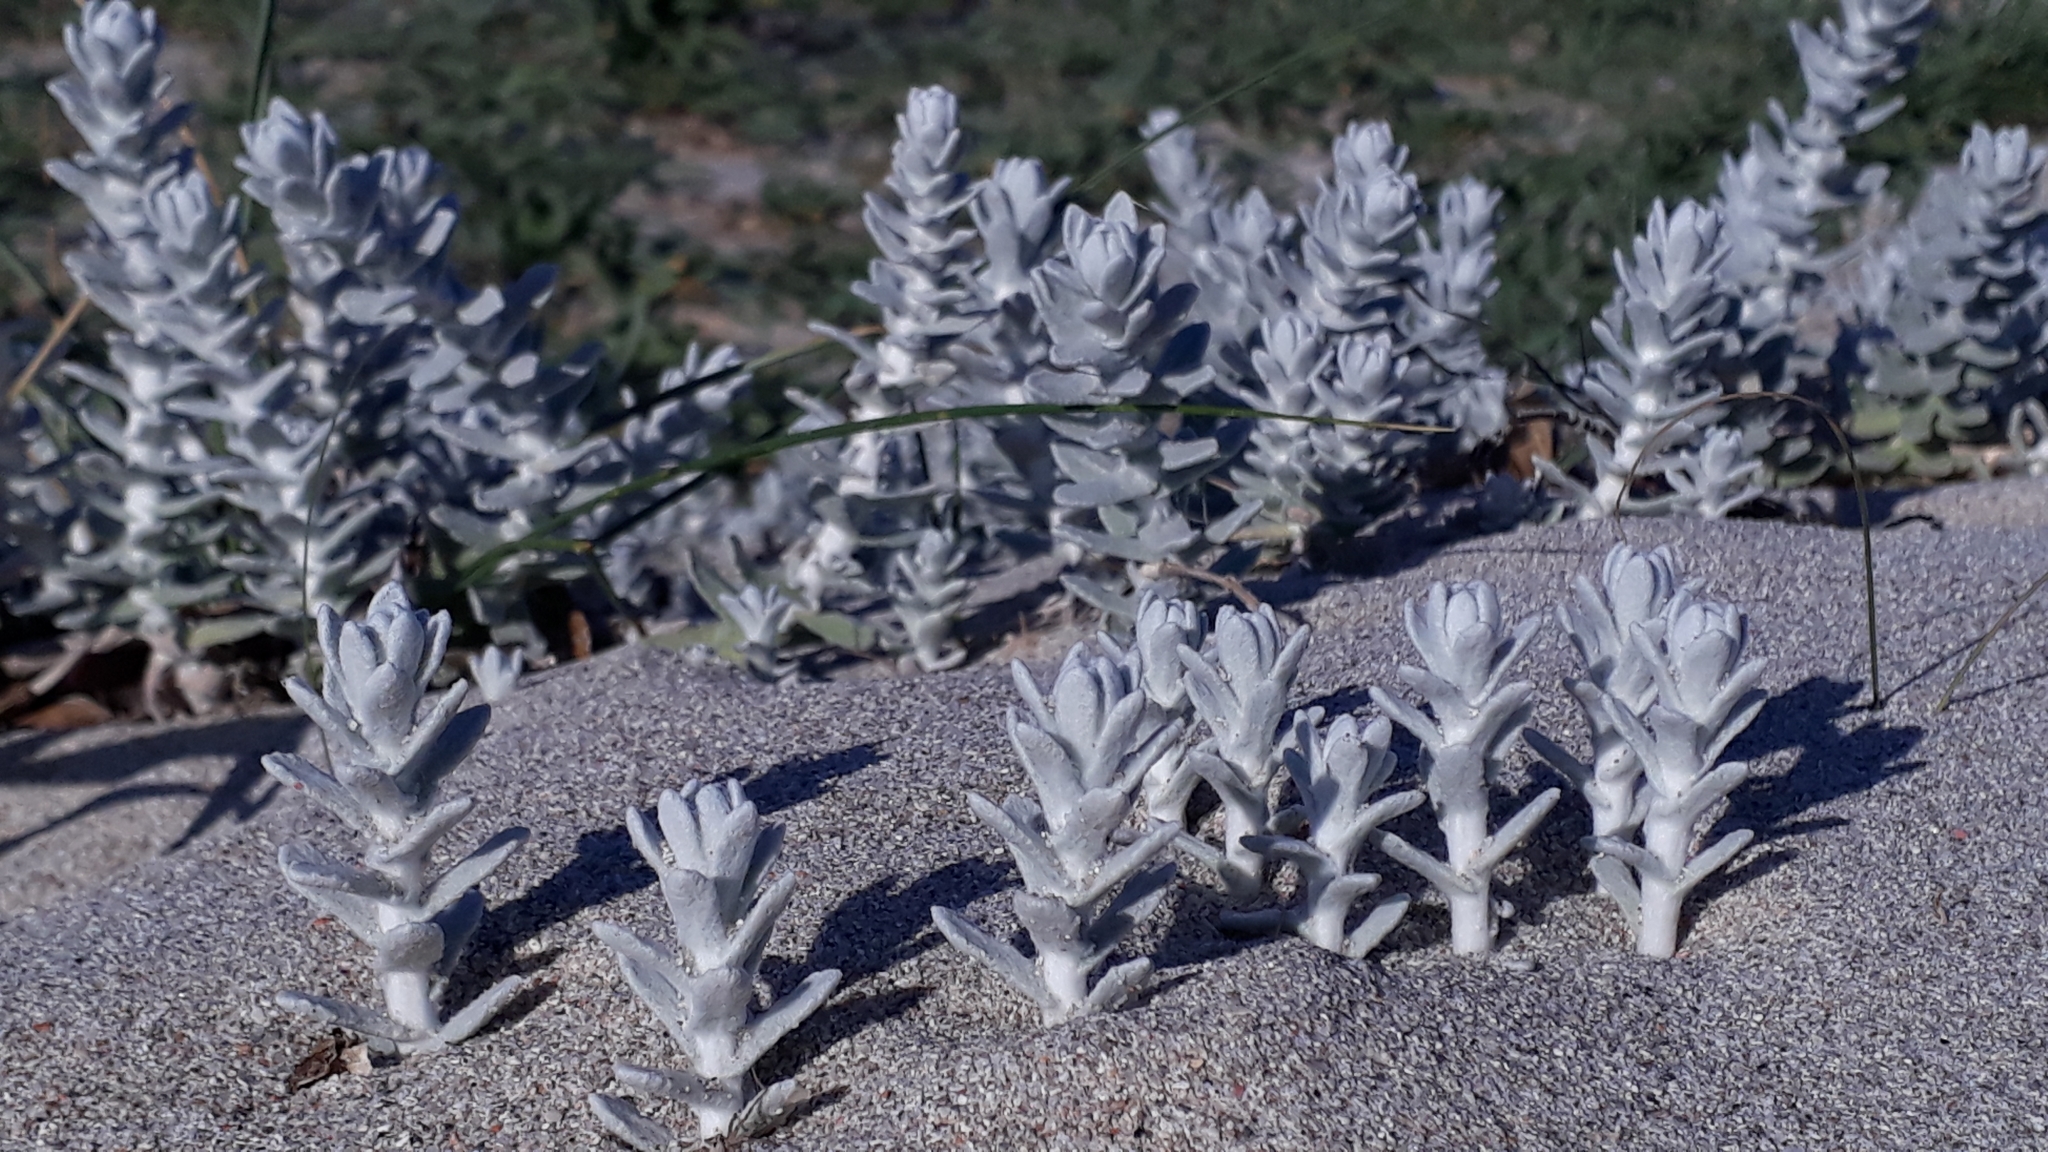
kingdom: Plantae
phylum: Tracheophyta
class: Magnoliopsida
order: Asterales
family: Asteraceae
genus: Achillea
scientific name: Achillea maritima
